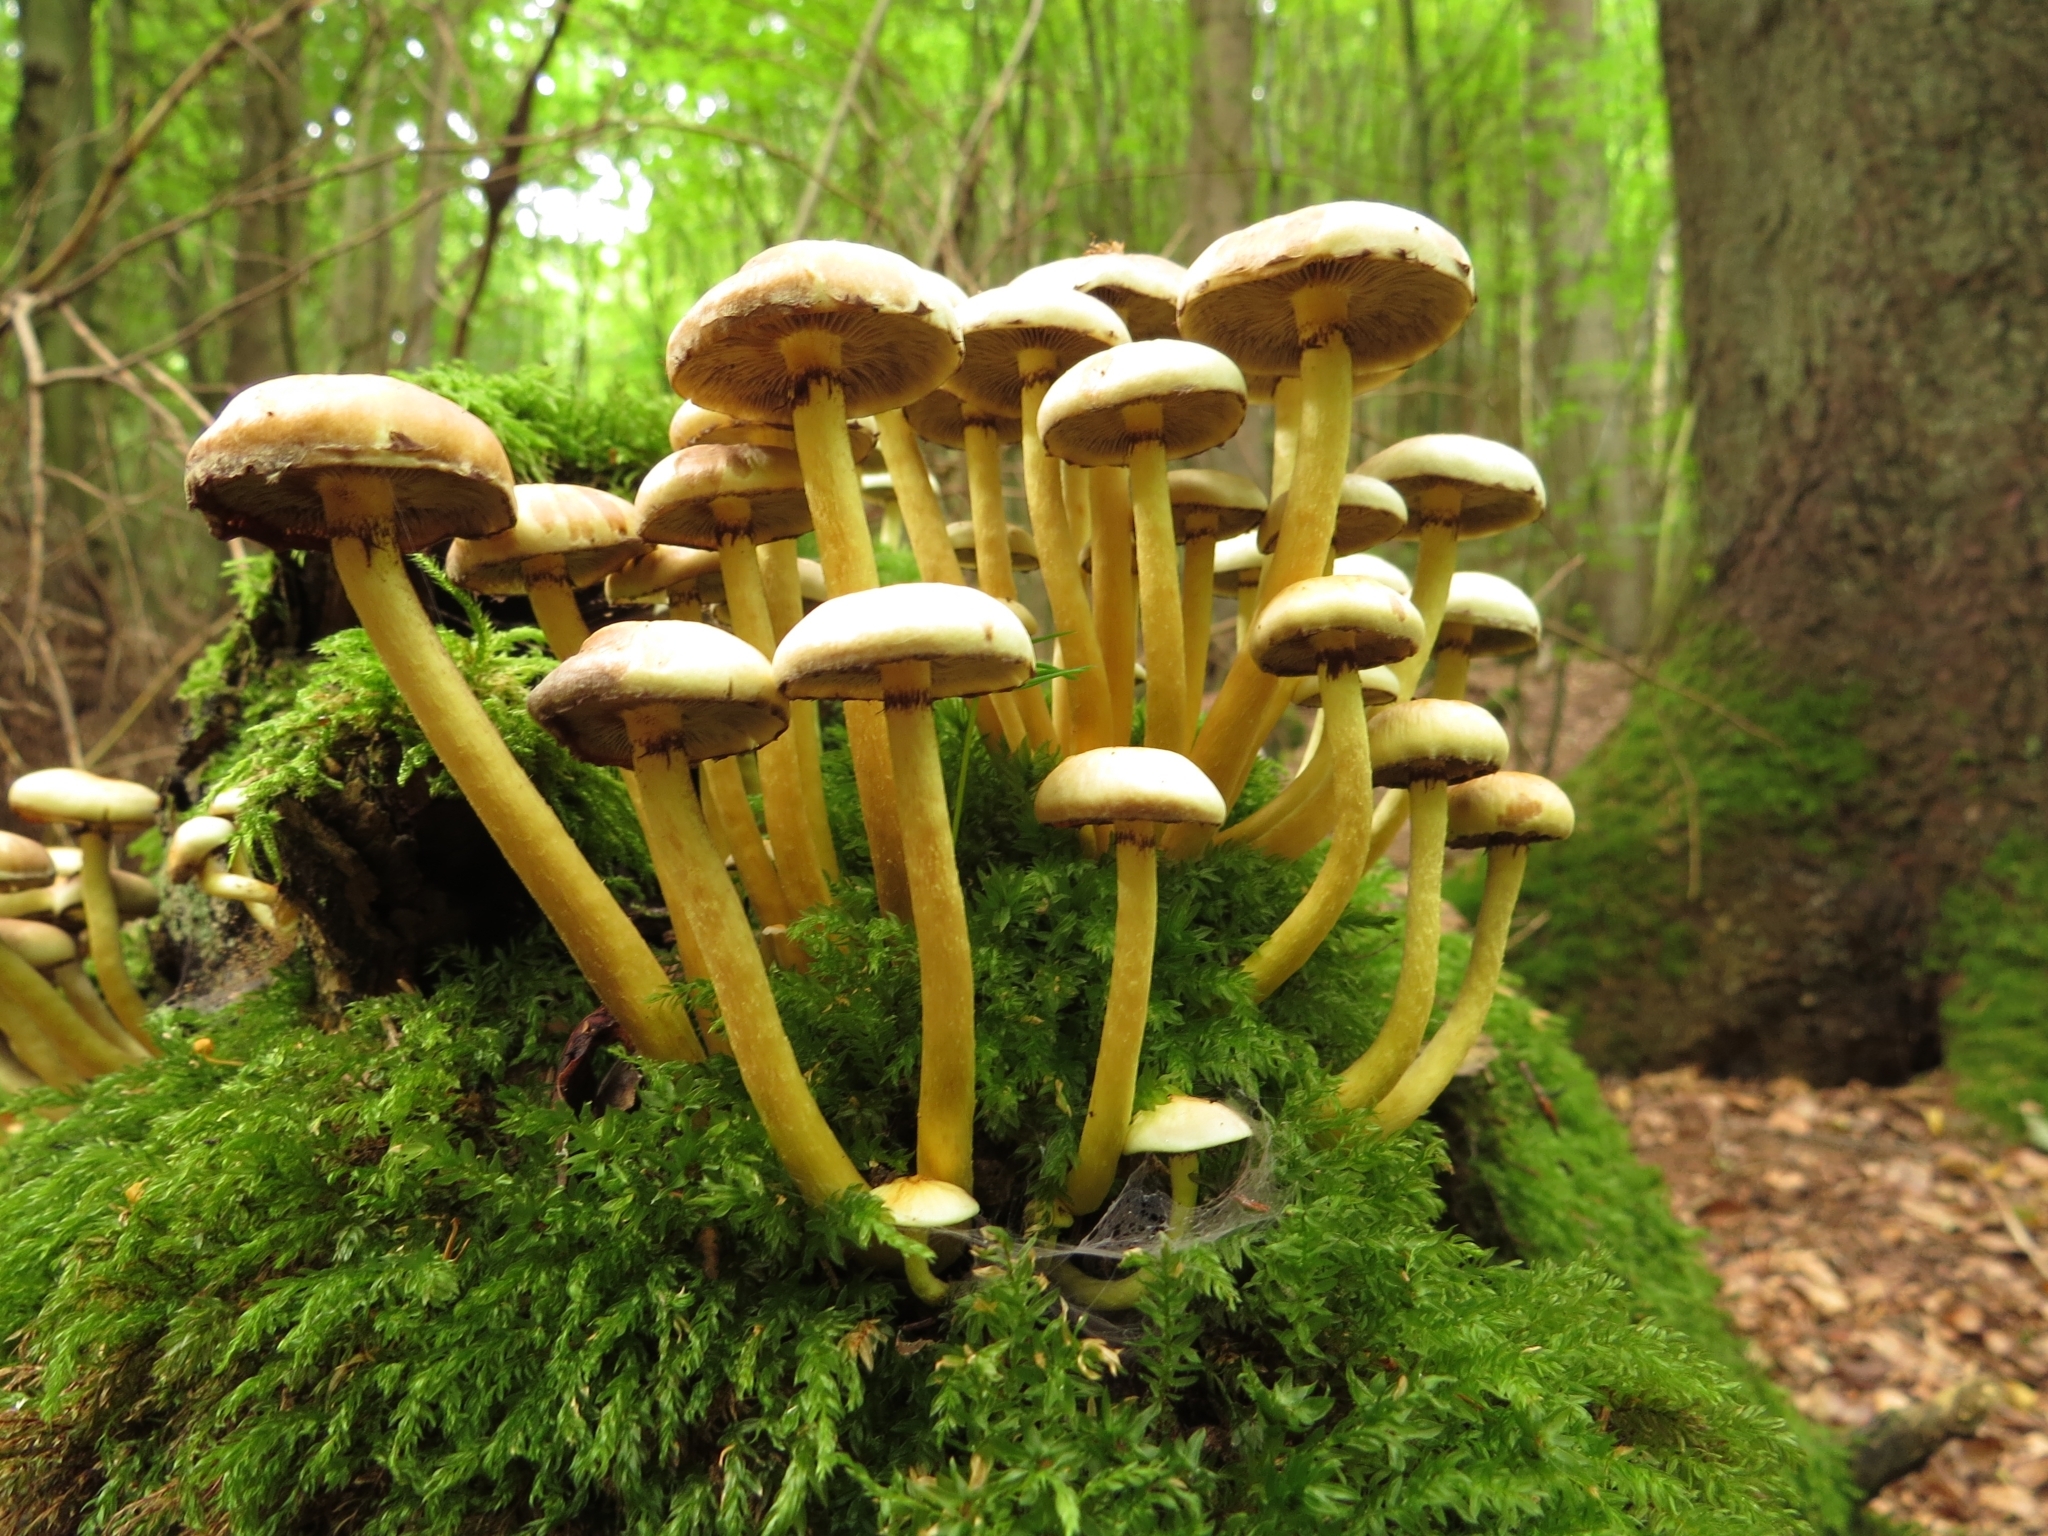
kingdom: Fungi
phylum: Basidiomycota
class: Agaricomycetes
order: Agaricales
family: Strophariaceae
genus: Hypholoma
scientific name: Hypholoma fasciculare
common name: Sulphur tuft
